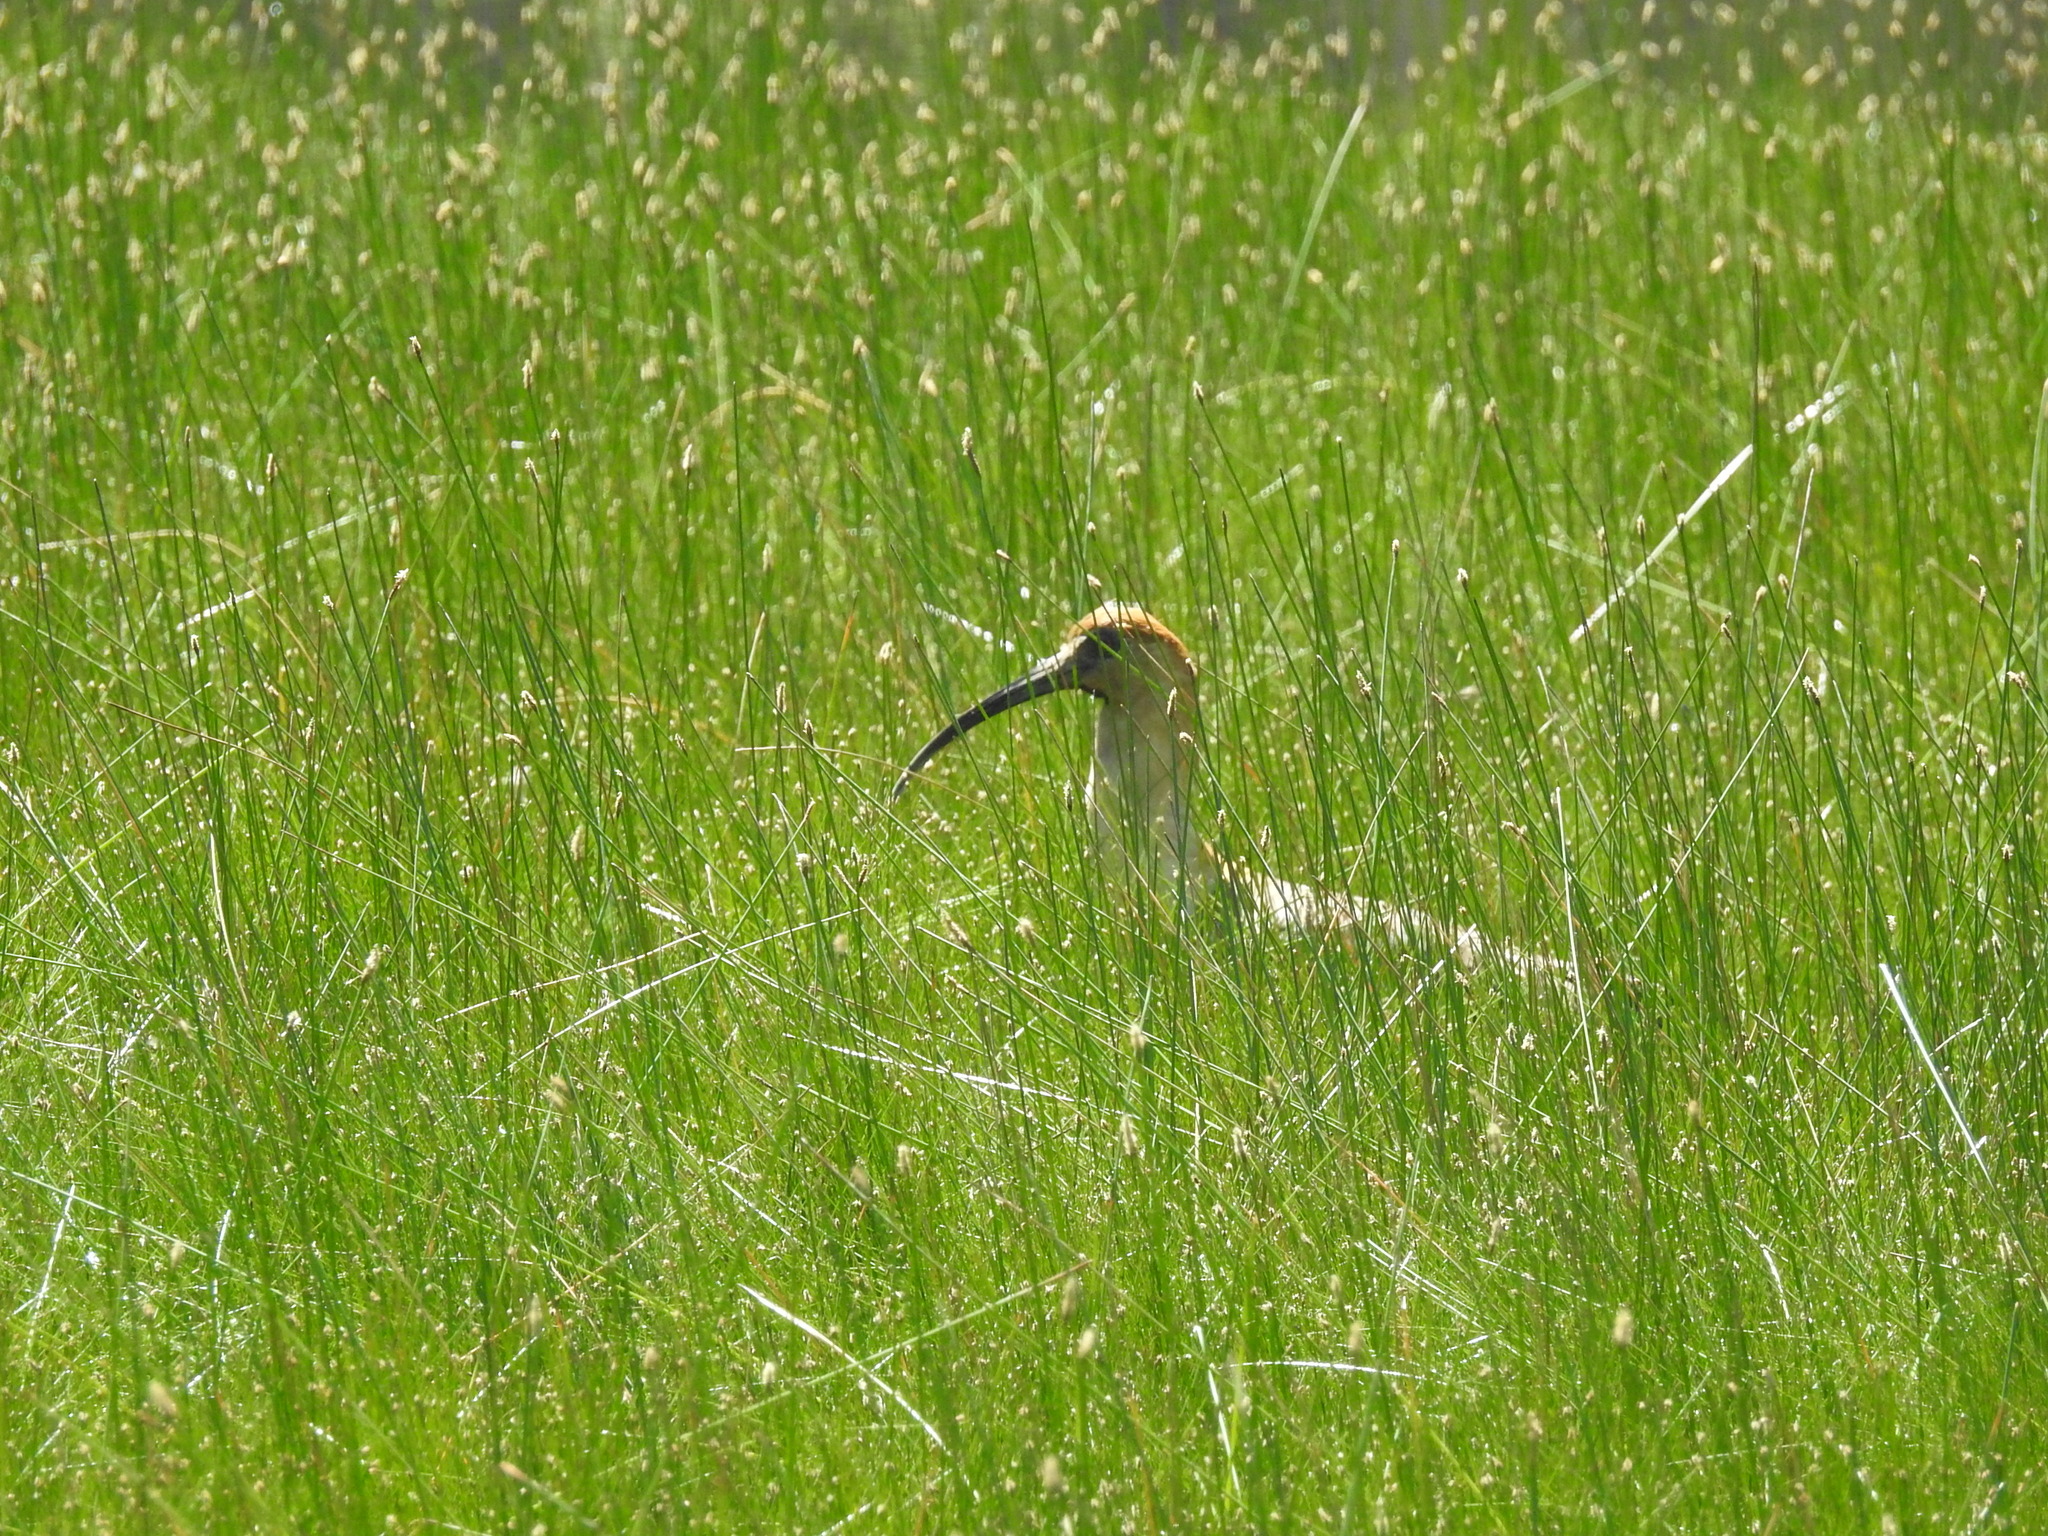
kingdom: Animalia
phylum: Chordata
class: Aves
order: Pelecaniformes
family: Threskiornithidae
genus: Theristicus
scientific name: Theristicus melanopis
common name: Black-faced ibis
